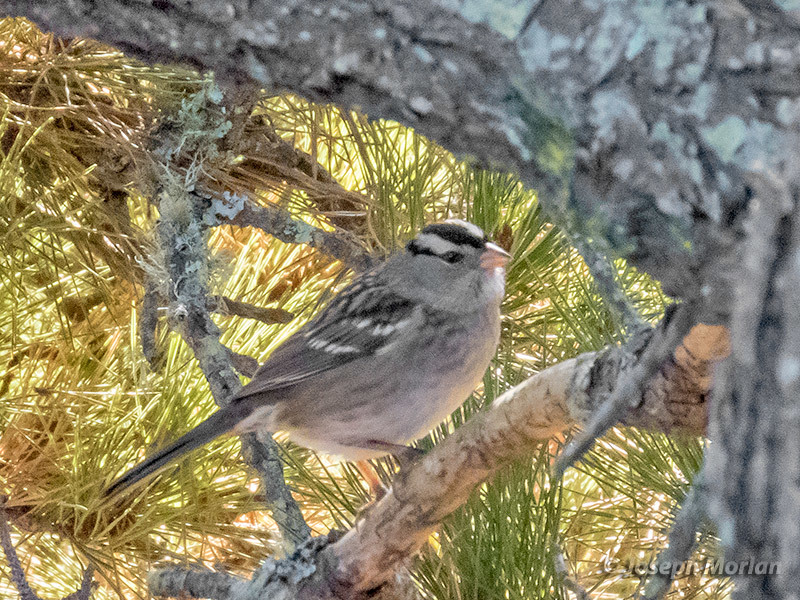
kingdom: Animalia
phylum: Chordata
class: Aves
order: Passeriformes
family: Passerellidae
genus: Zonotrichia
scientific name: Zonotrichia leucophrys
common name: White-crowned sparrow
